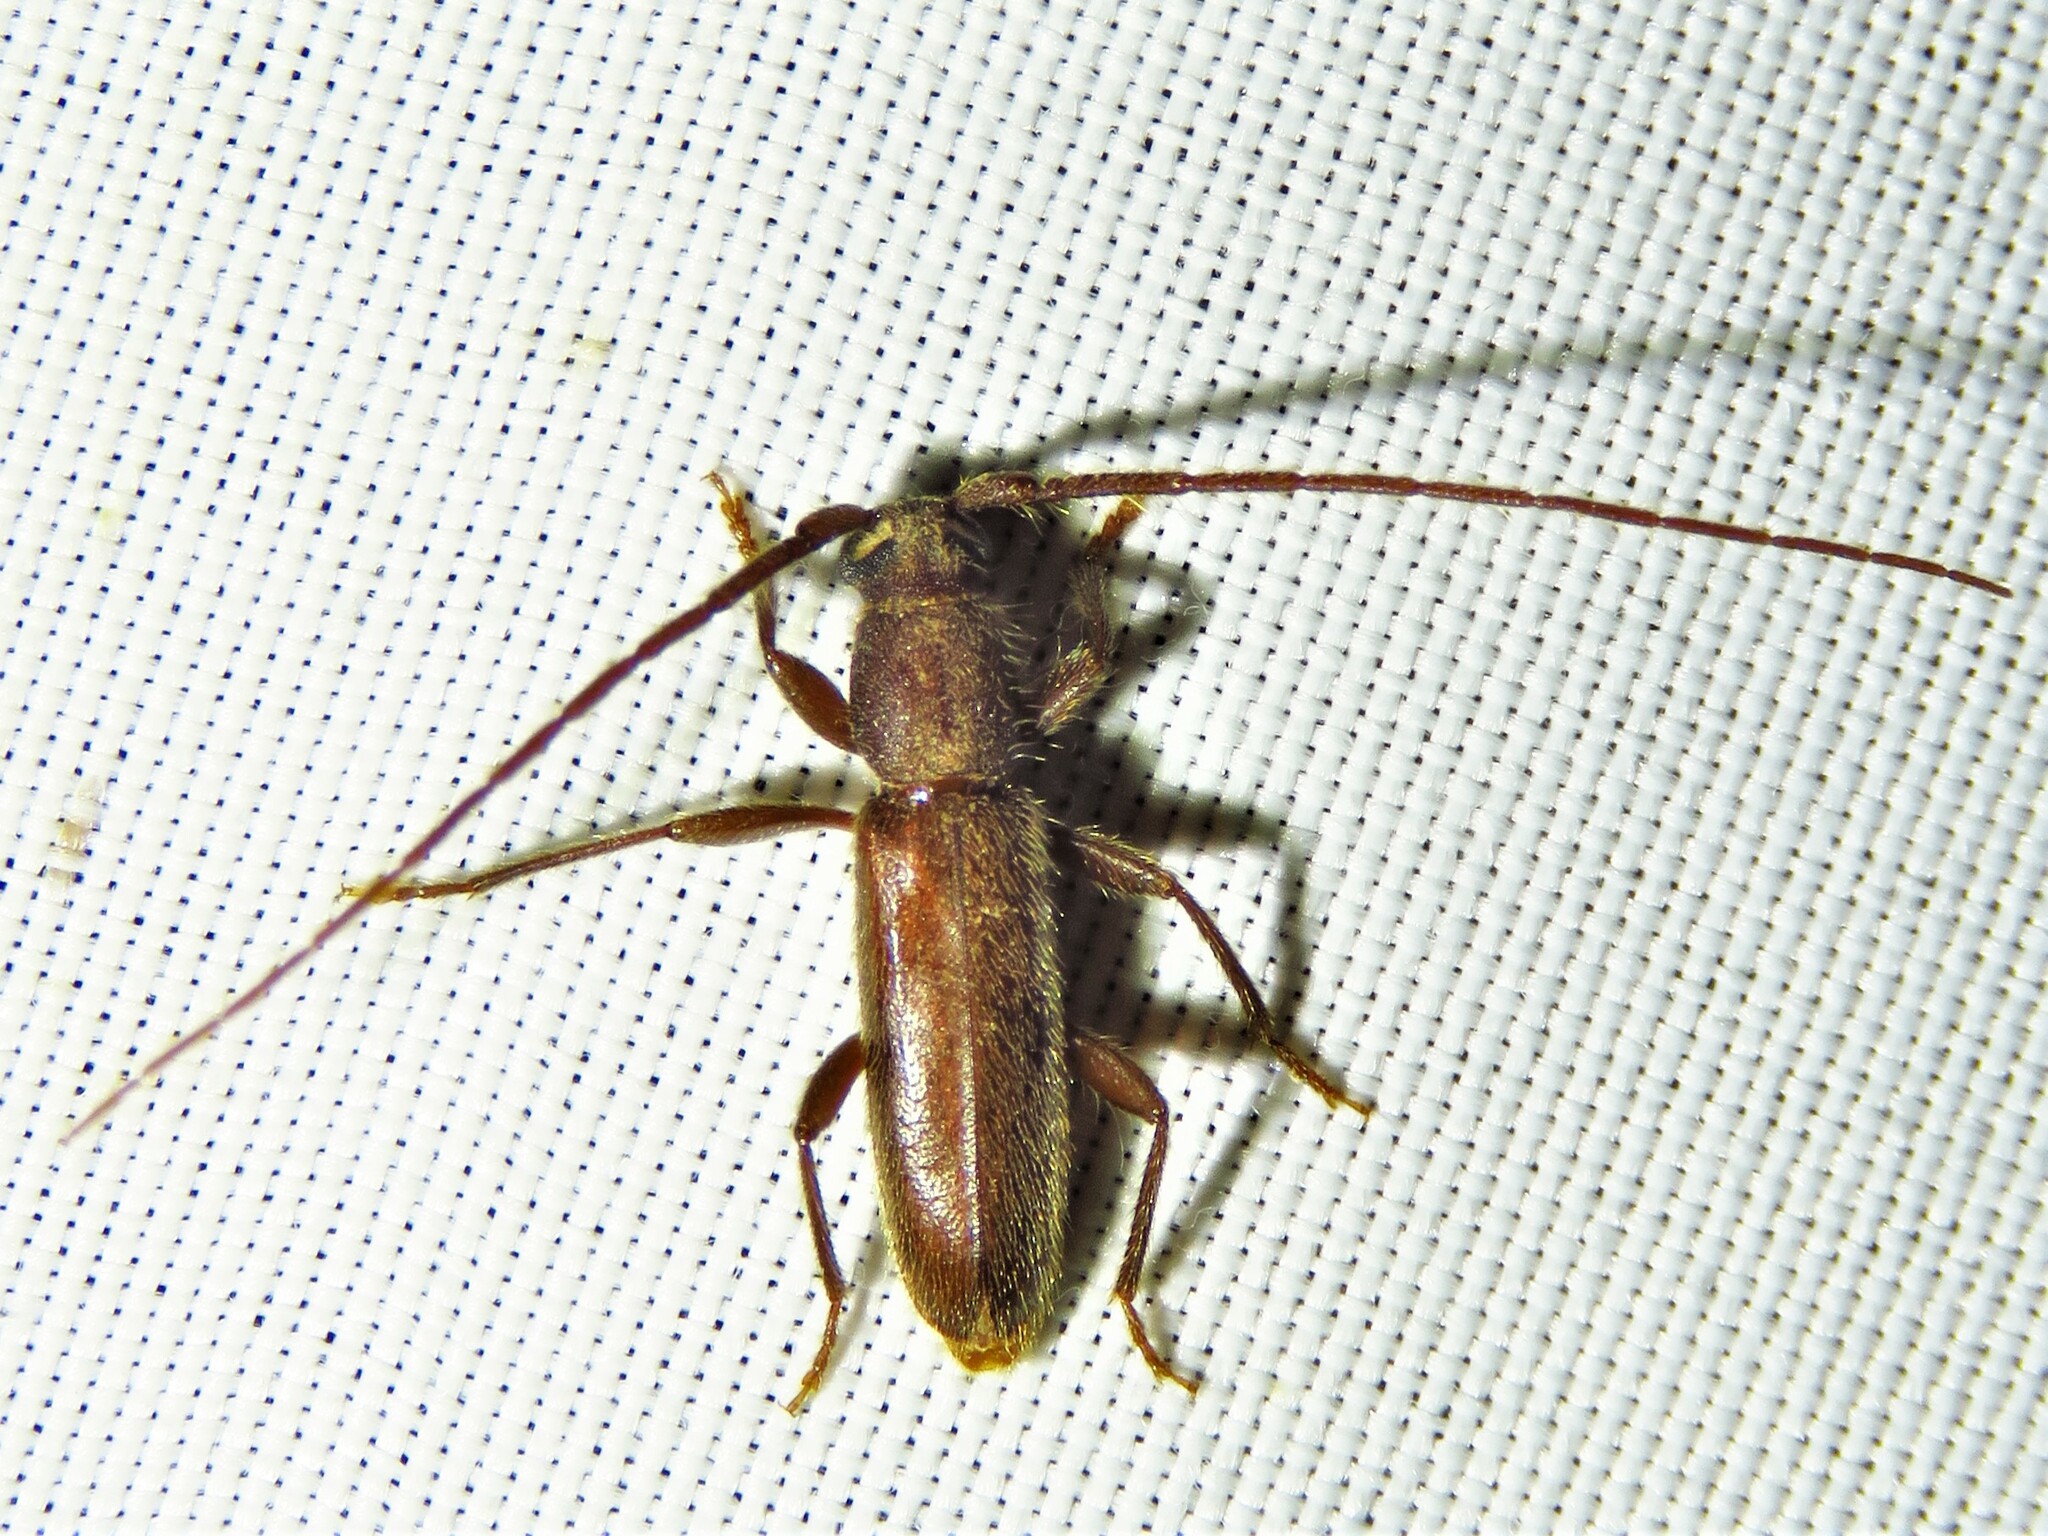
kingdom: Animalia
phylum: Arthropoda
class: Insecta
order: Coleoptera
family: Cerambycidae
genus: Geropa
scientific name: Geropa concolor
